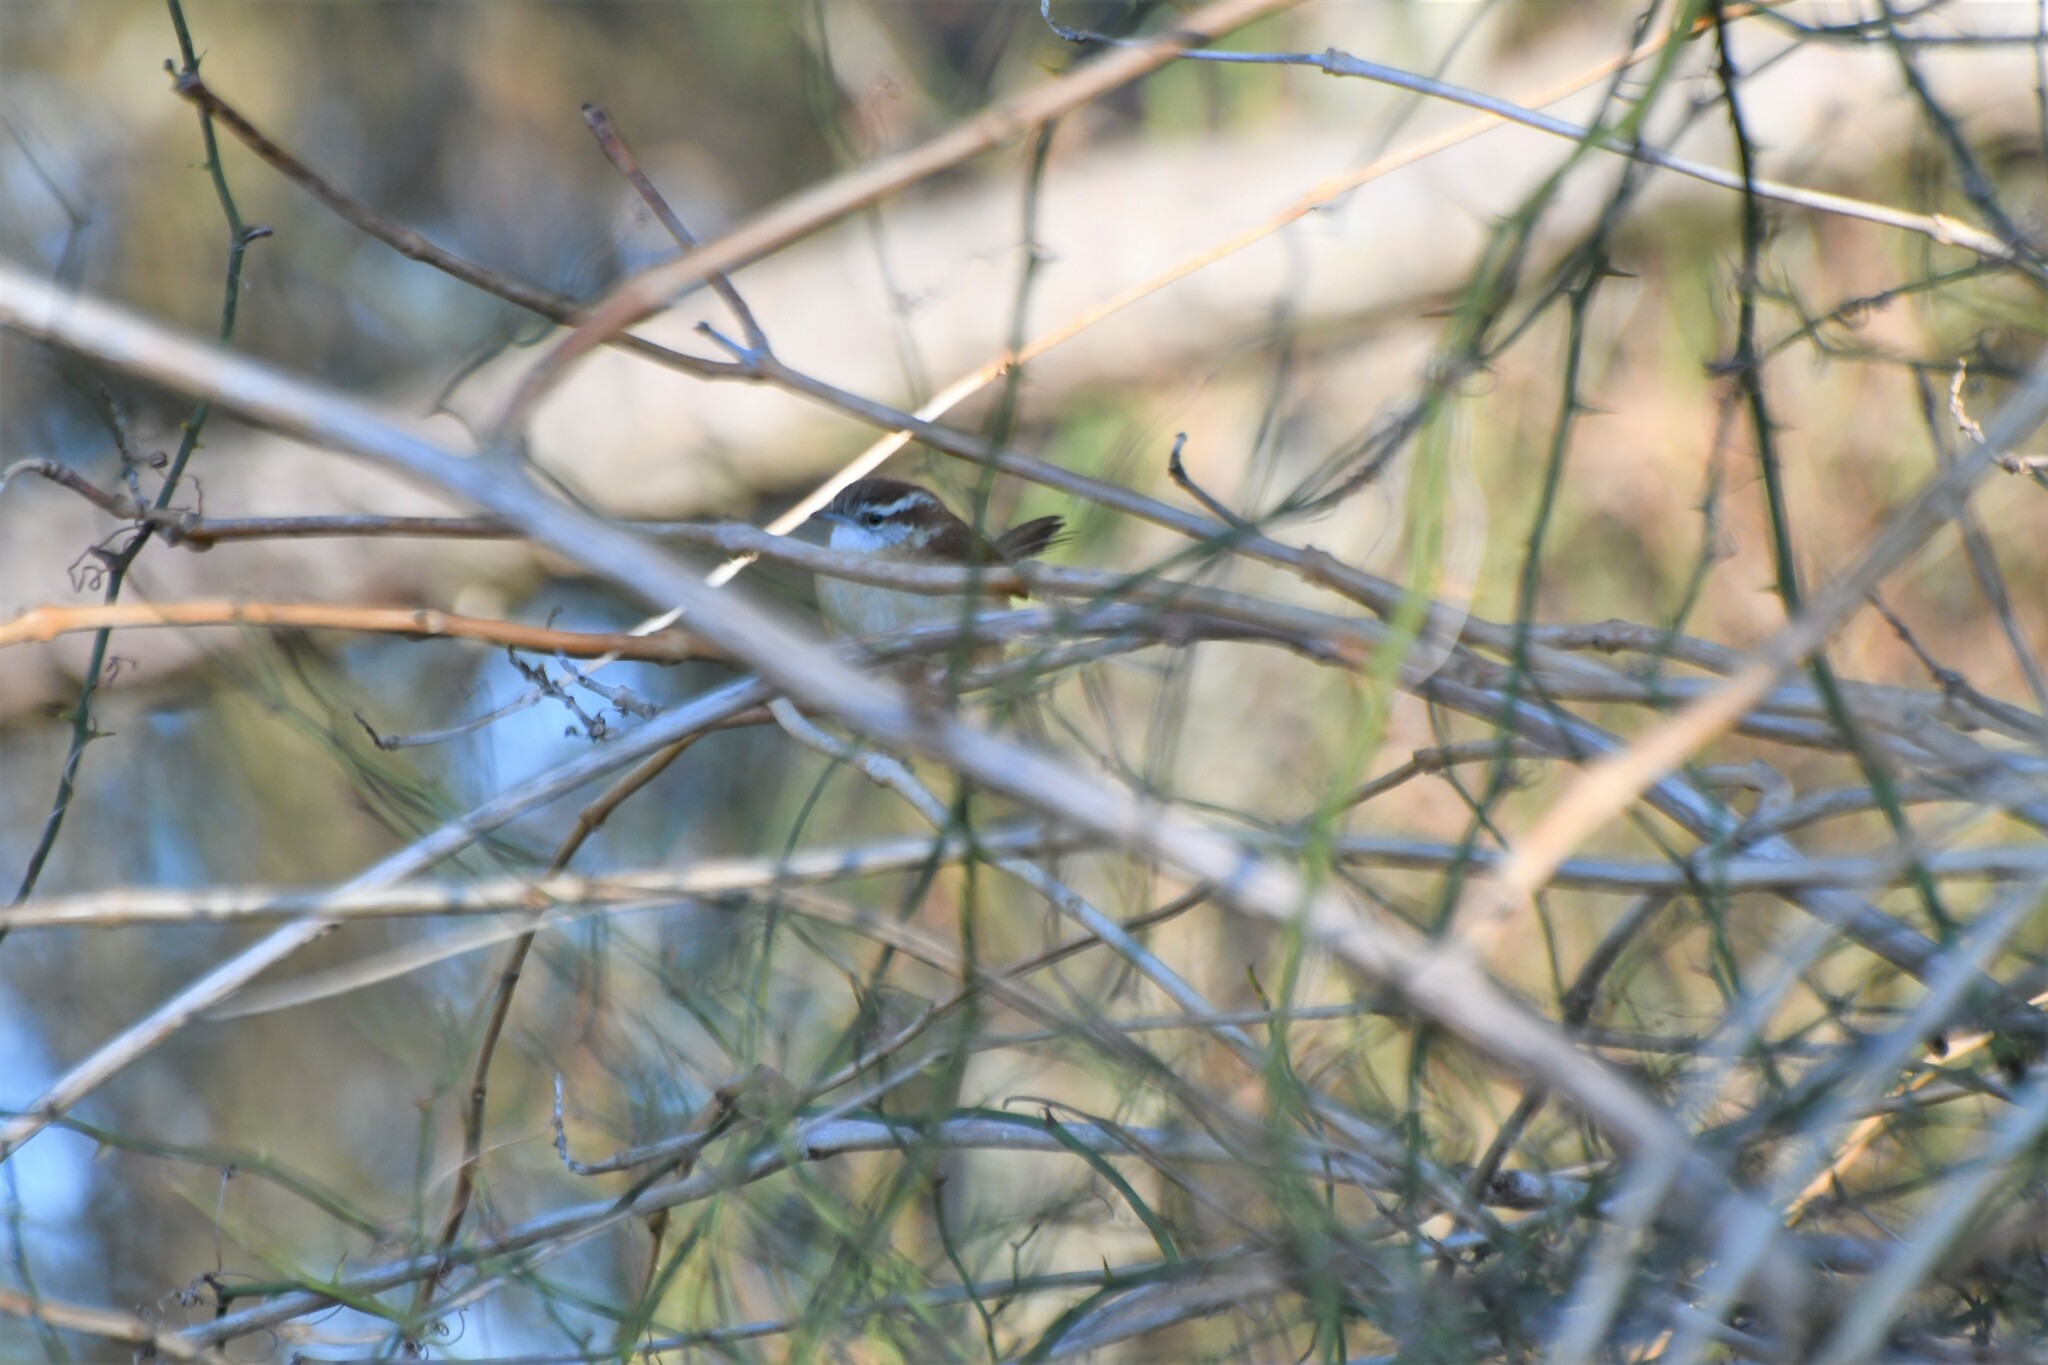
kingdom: Animalia
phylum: Chordata
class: Aves
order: Passeriformes
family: Troglodytidae
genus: Thryothorus
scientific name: Thryothorus ludovicianus
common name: Carolina wren
